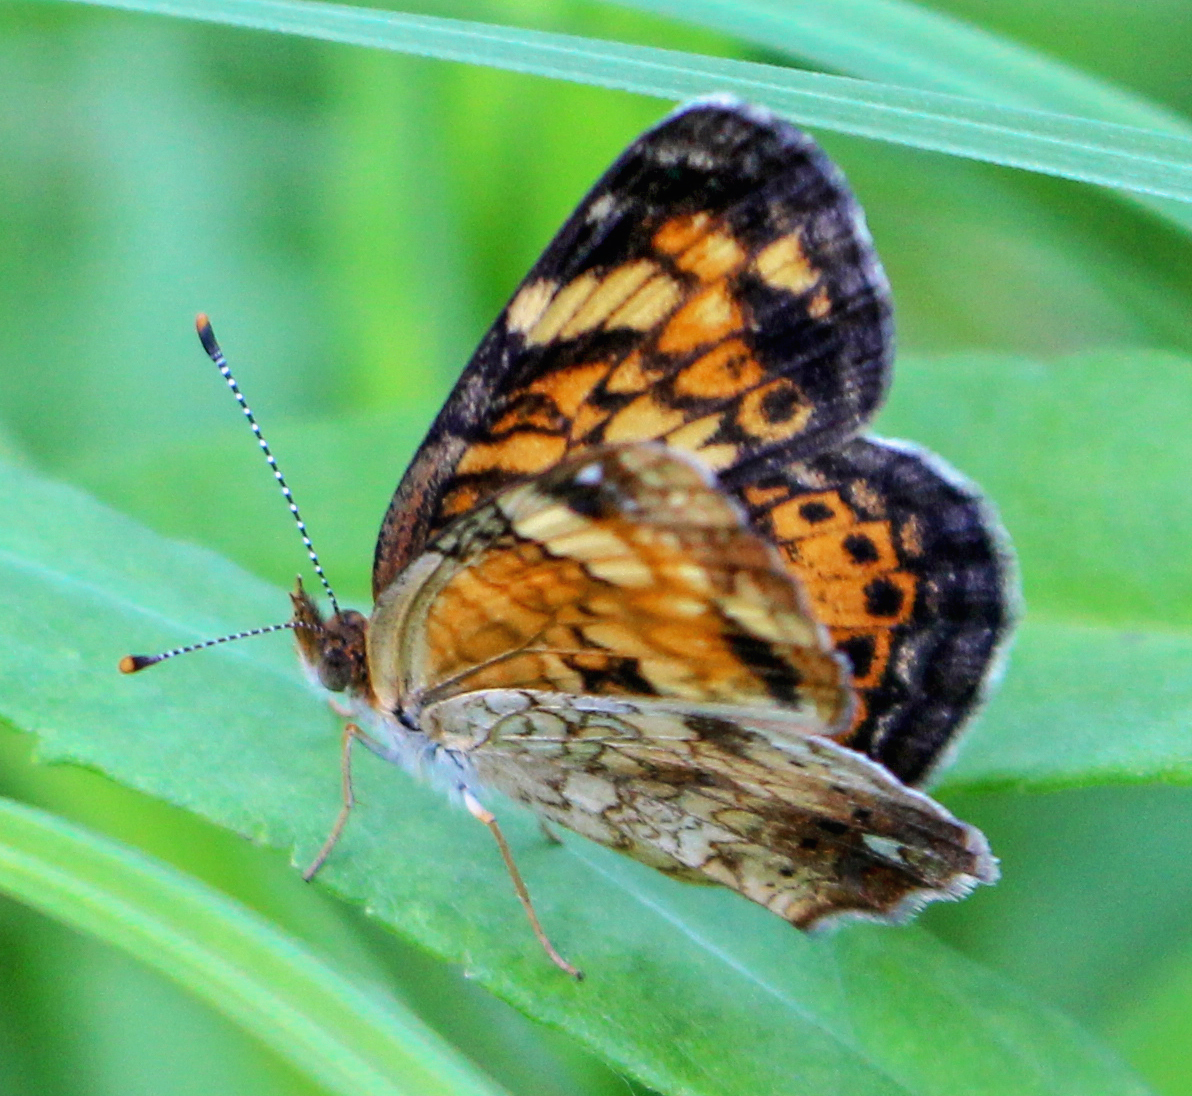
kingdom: Animalia
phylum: Arthropoda
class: Insecta
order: Lepidoptera
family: Nymphalidae
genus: Phyciodes
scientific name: Phyciodes tharos
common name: Pearl crescent
